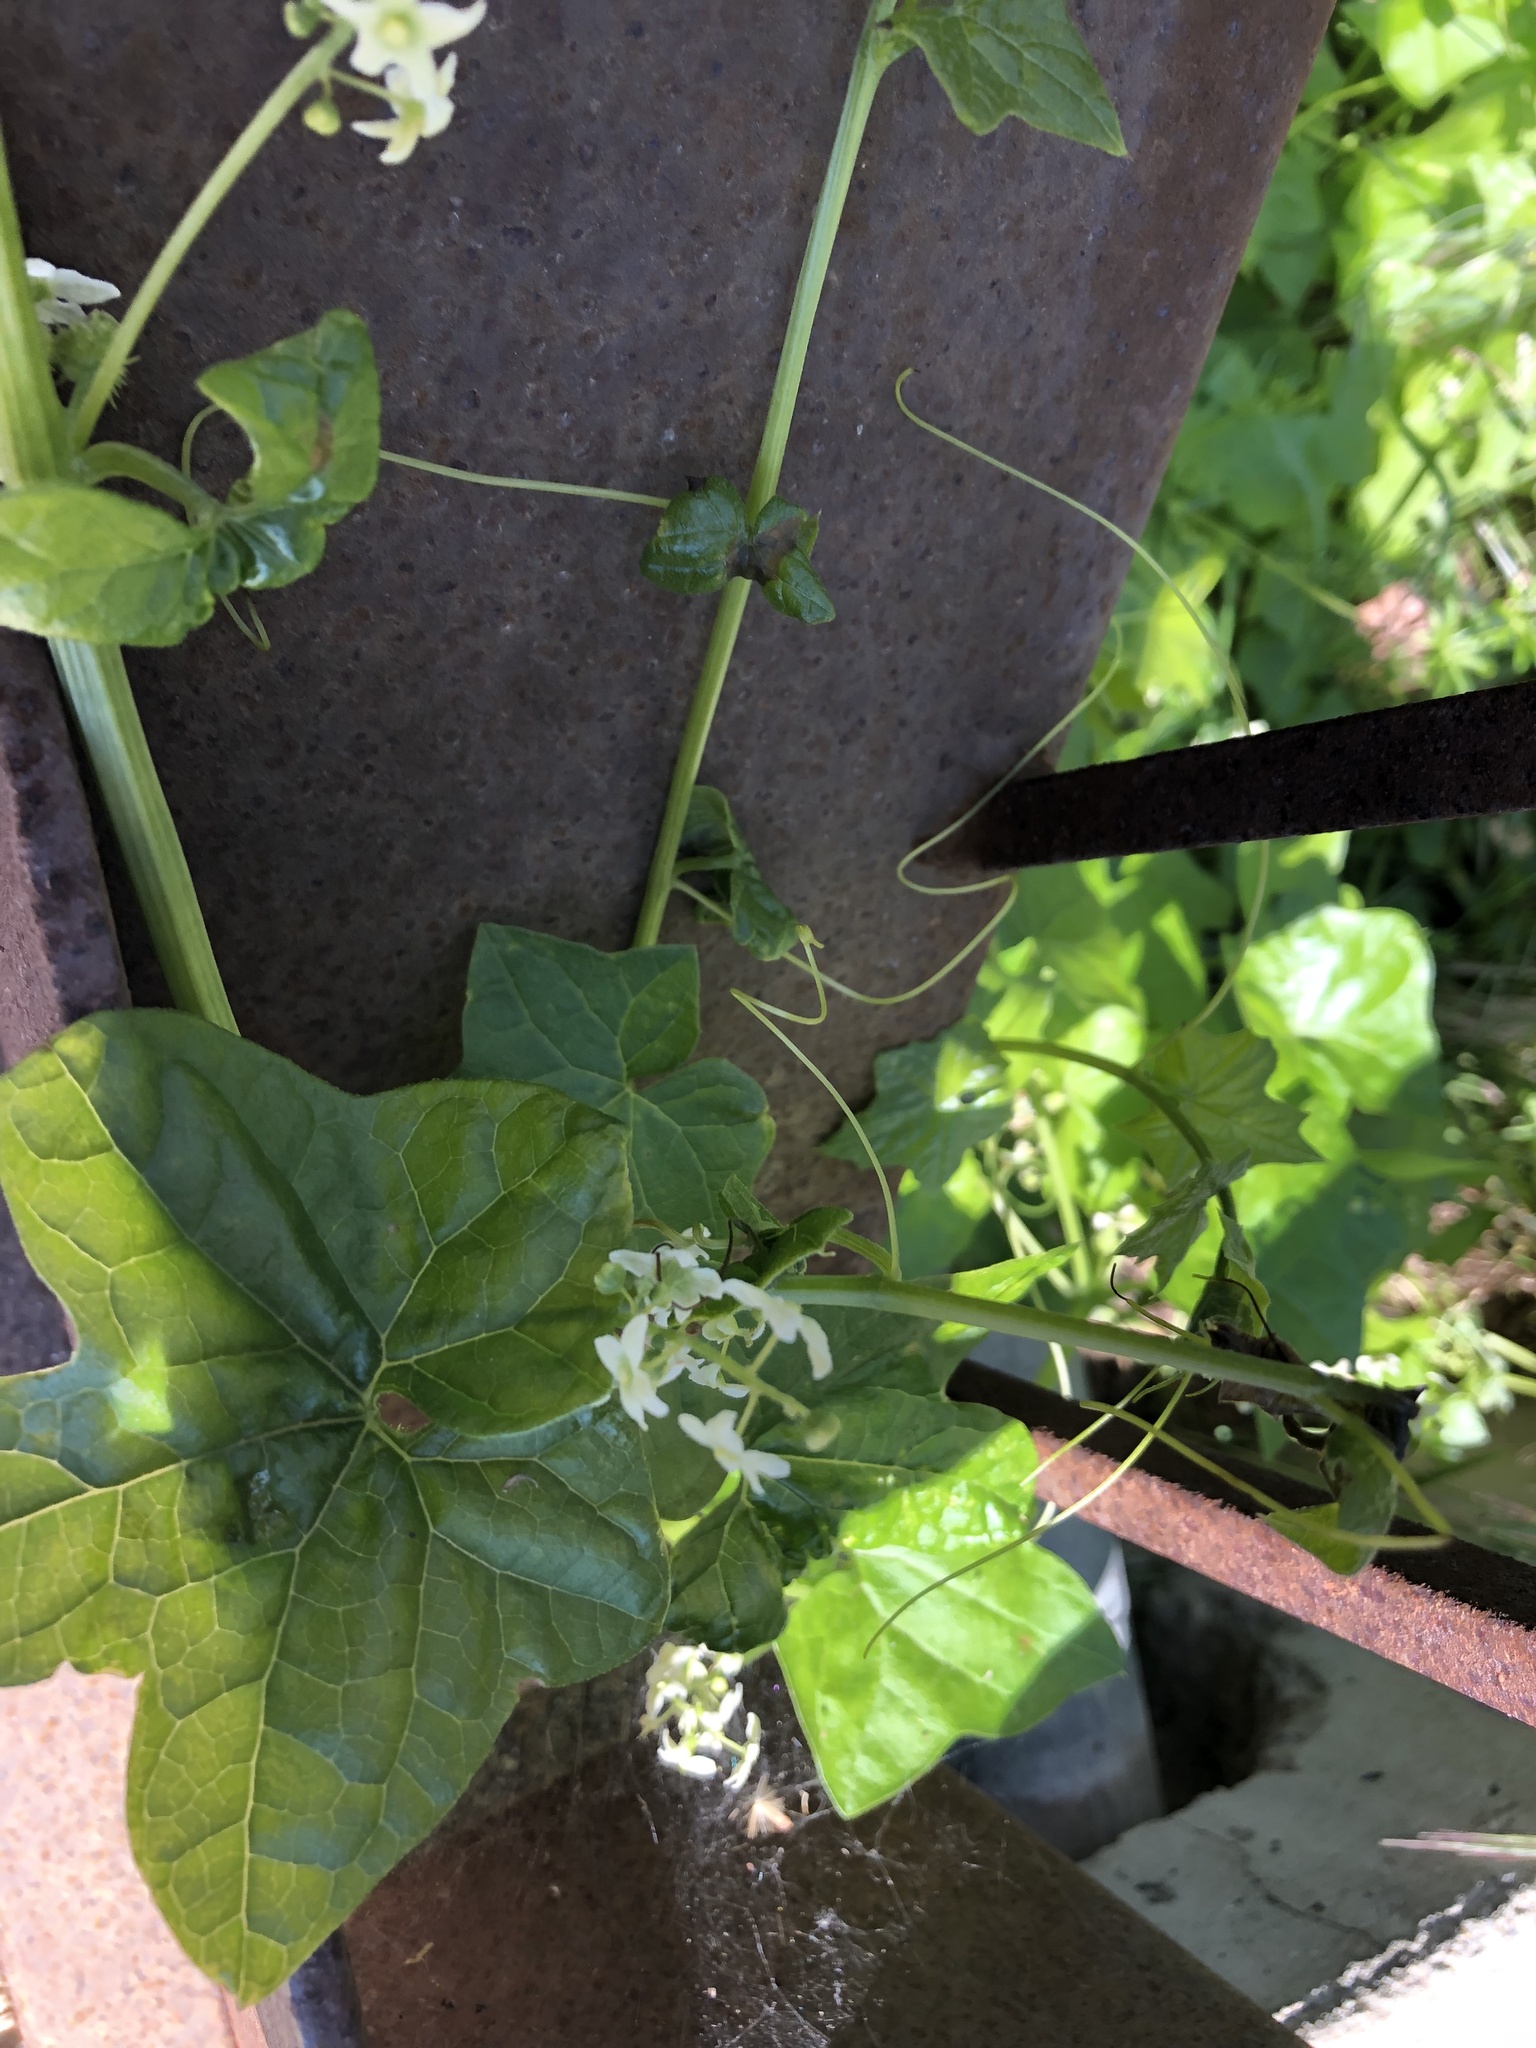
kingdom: Plantae
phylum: Tracheophyta
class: Magnoliopsida
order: Cucurbitales
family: Cucurbitaceae
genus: Marah
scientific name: Marah fabacea
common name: California manroot
